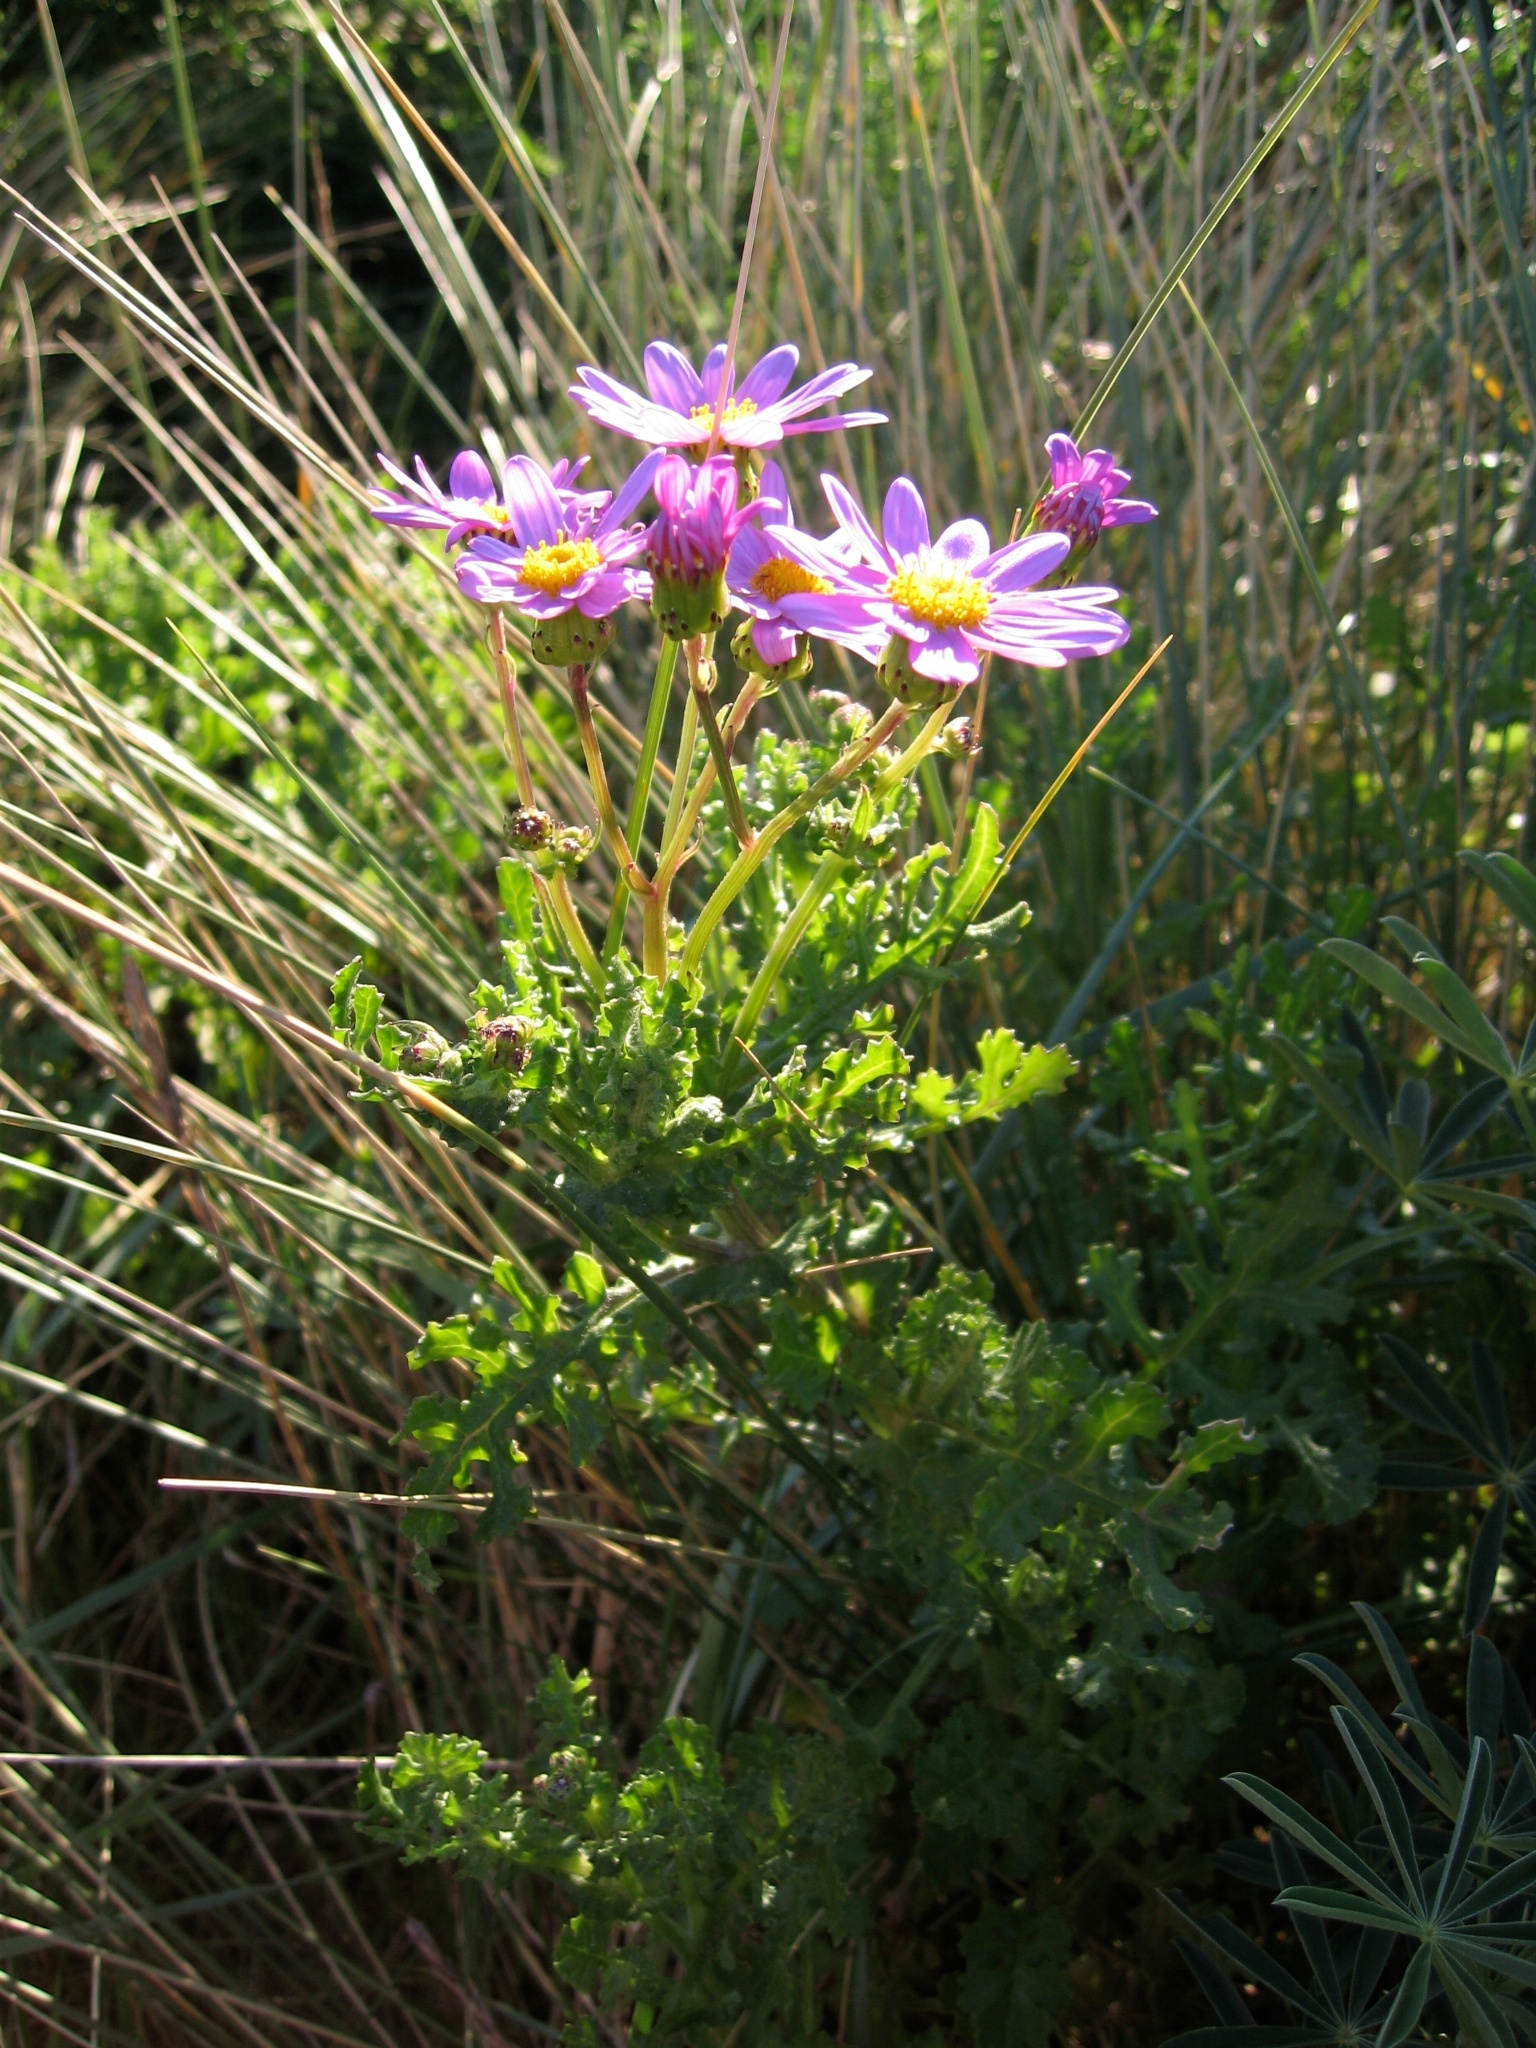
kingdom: Plantae
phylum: Tracheophyta
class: Magnoliopsida
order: Asterales
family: Asteraceae
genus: Senecio
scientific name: Senecio elegans
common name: Purple groundsel
